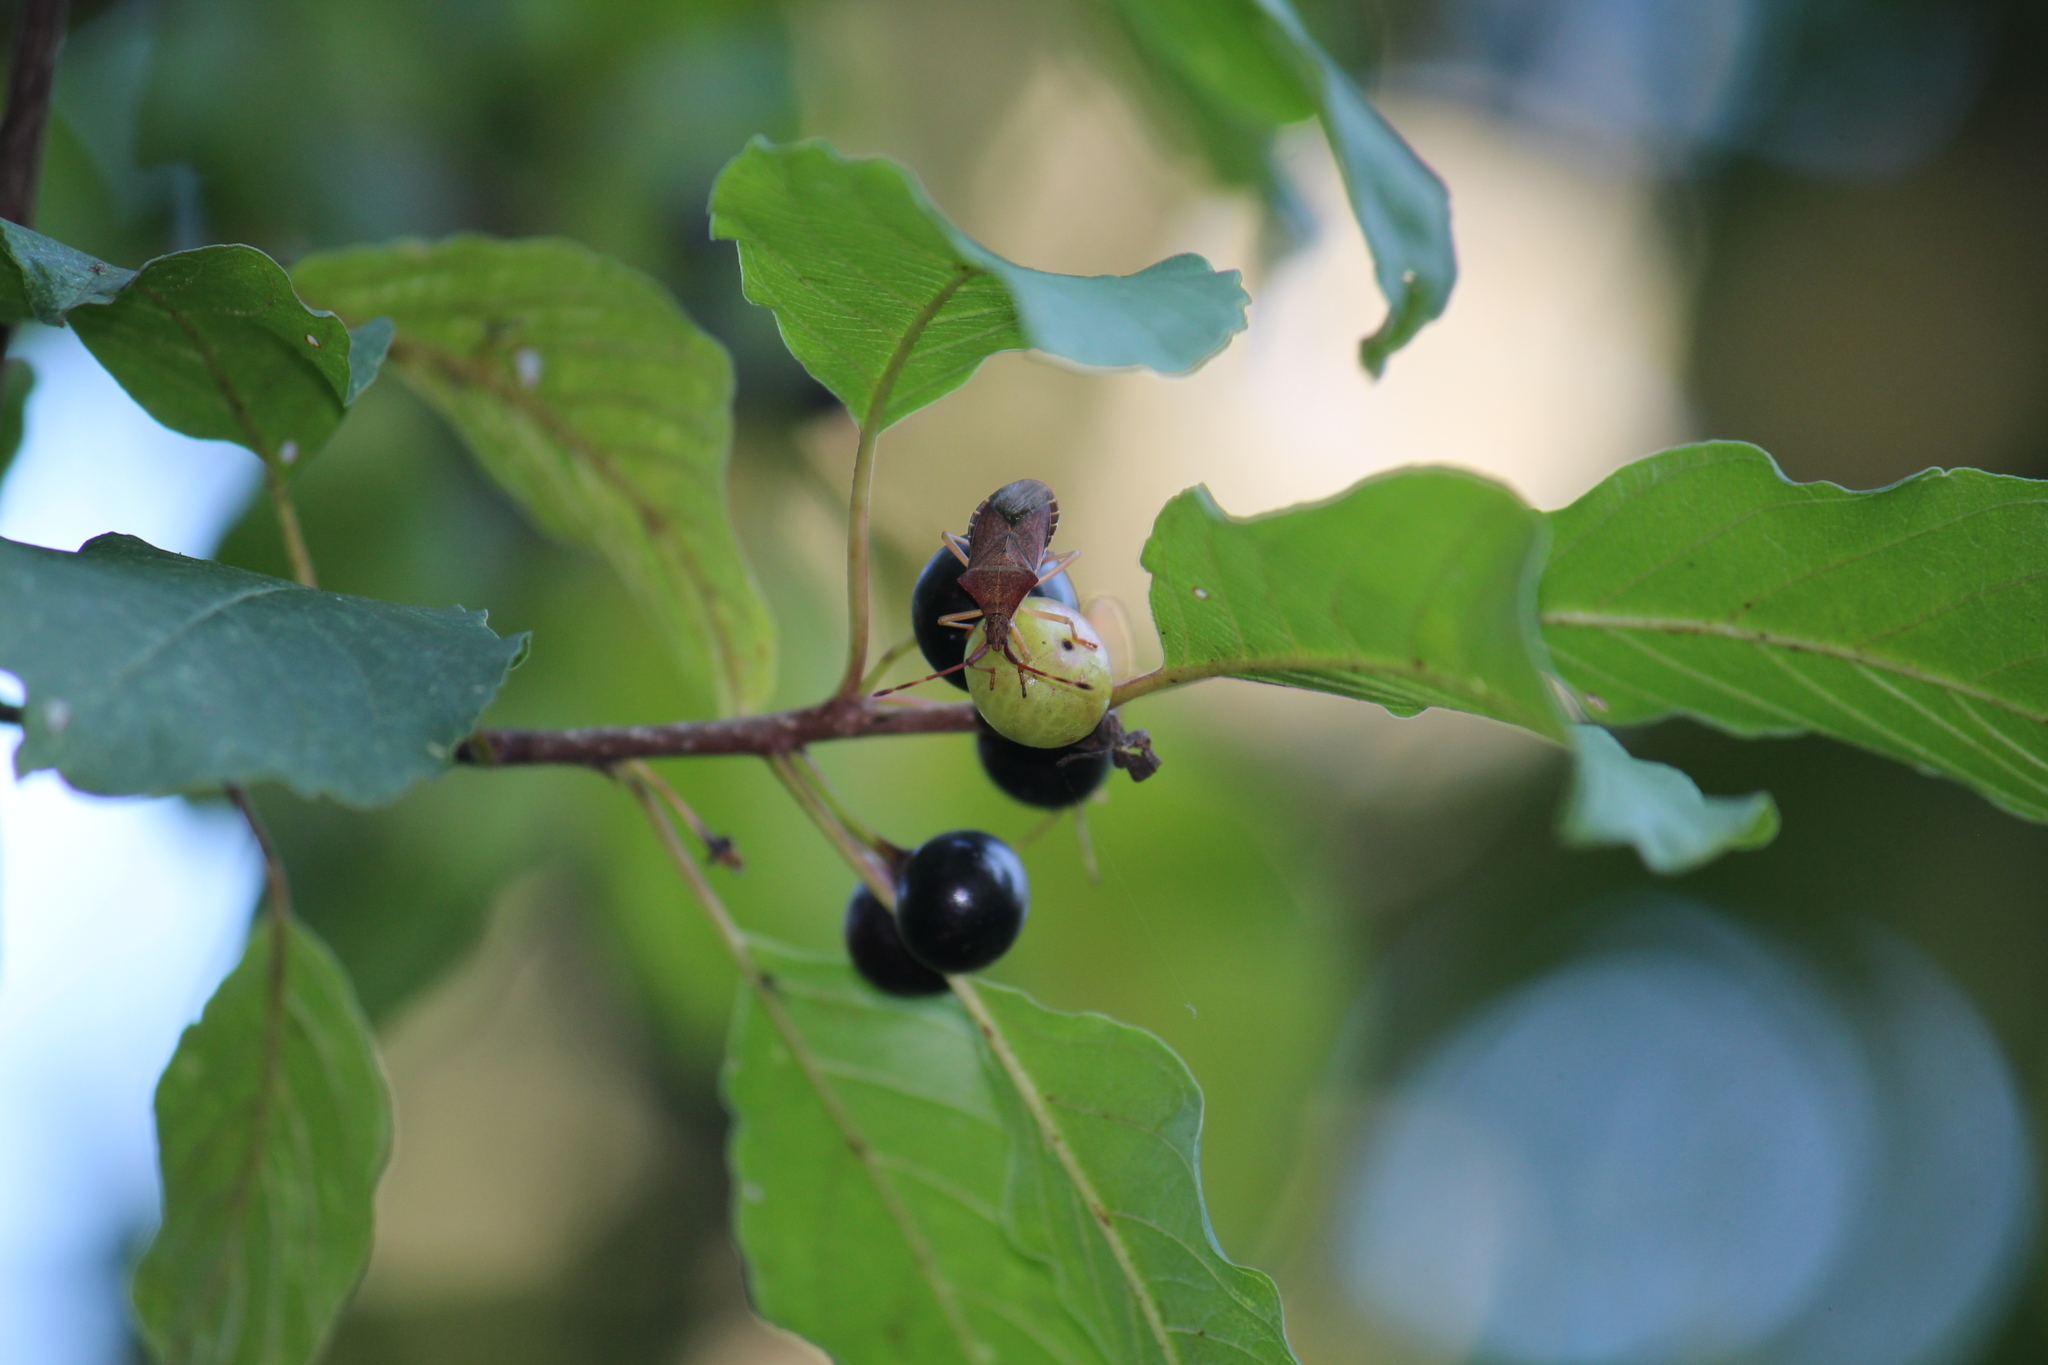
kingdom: Animalia
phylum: Arthropoda
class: Insecta
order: Hemiptera
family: Coreidae
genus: Gonocerus
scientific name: Gonocerus acuteangulatus
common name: Box bug
